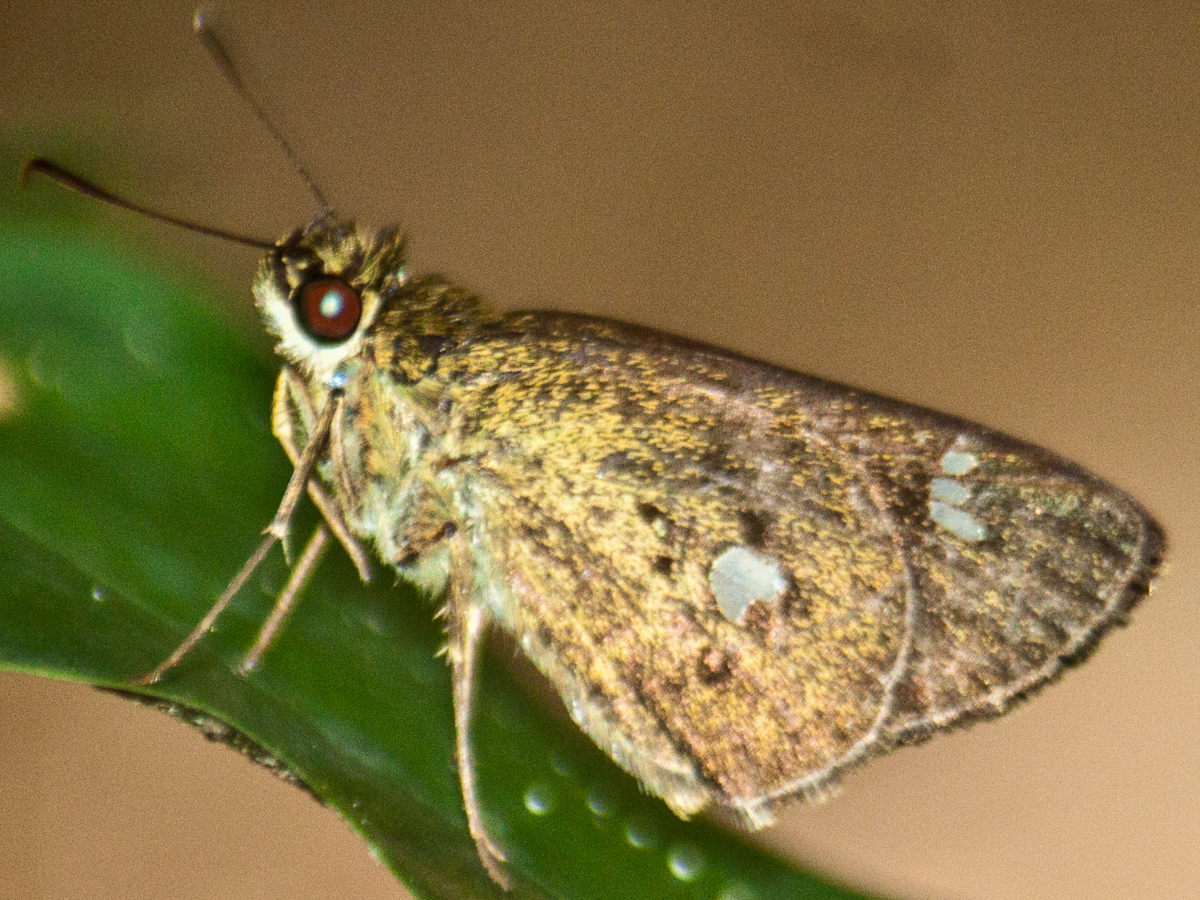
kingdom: Animalia
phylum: Arthropoda
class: Insecta
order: Lepidoptera
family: Hesperiidae
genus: Scobura
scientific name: Scobura phiditia
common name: Malay forest bob
